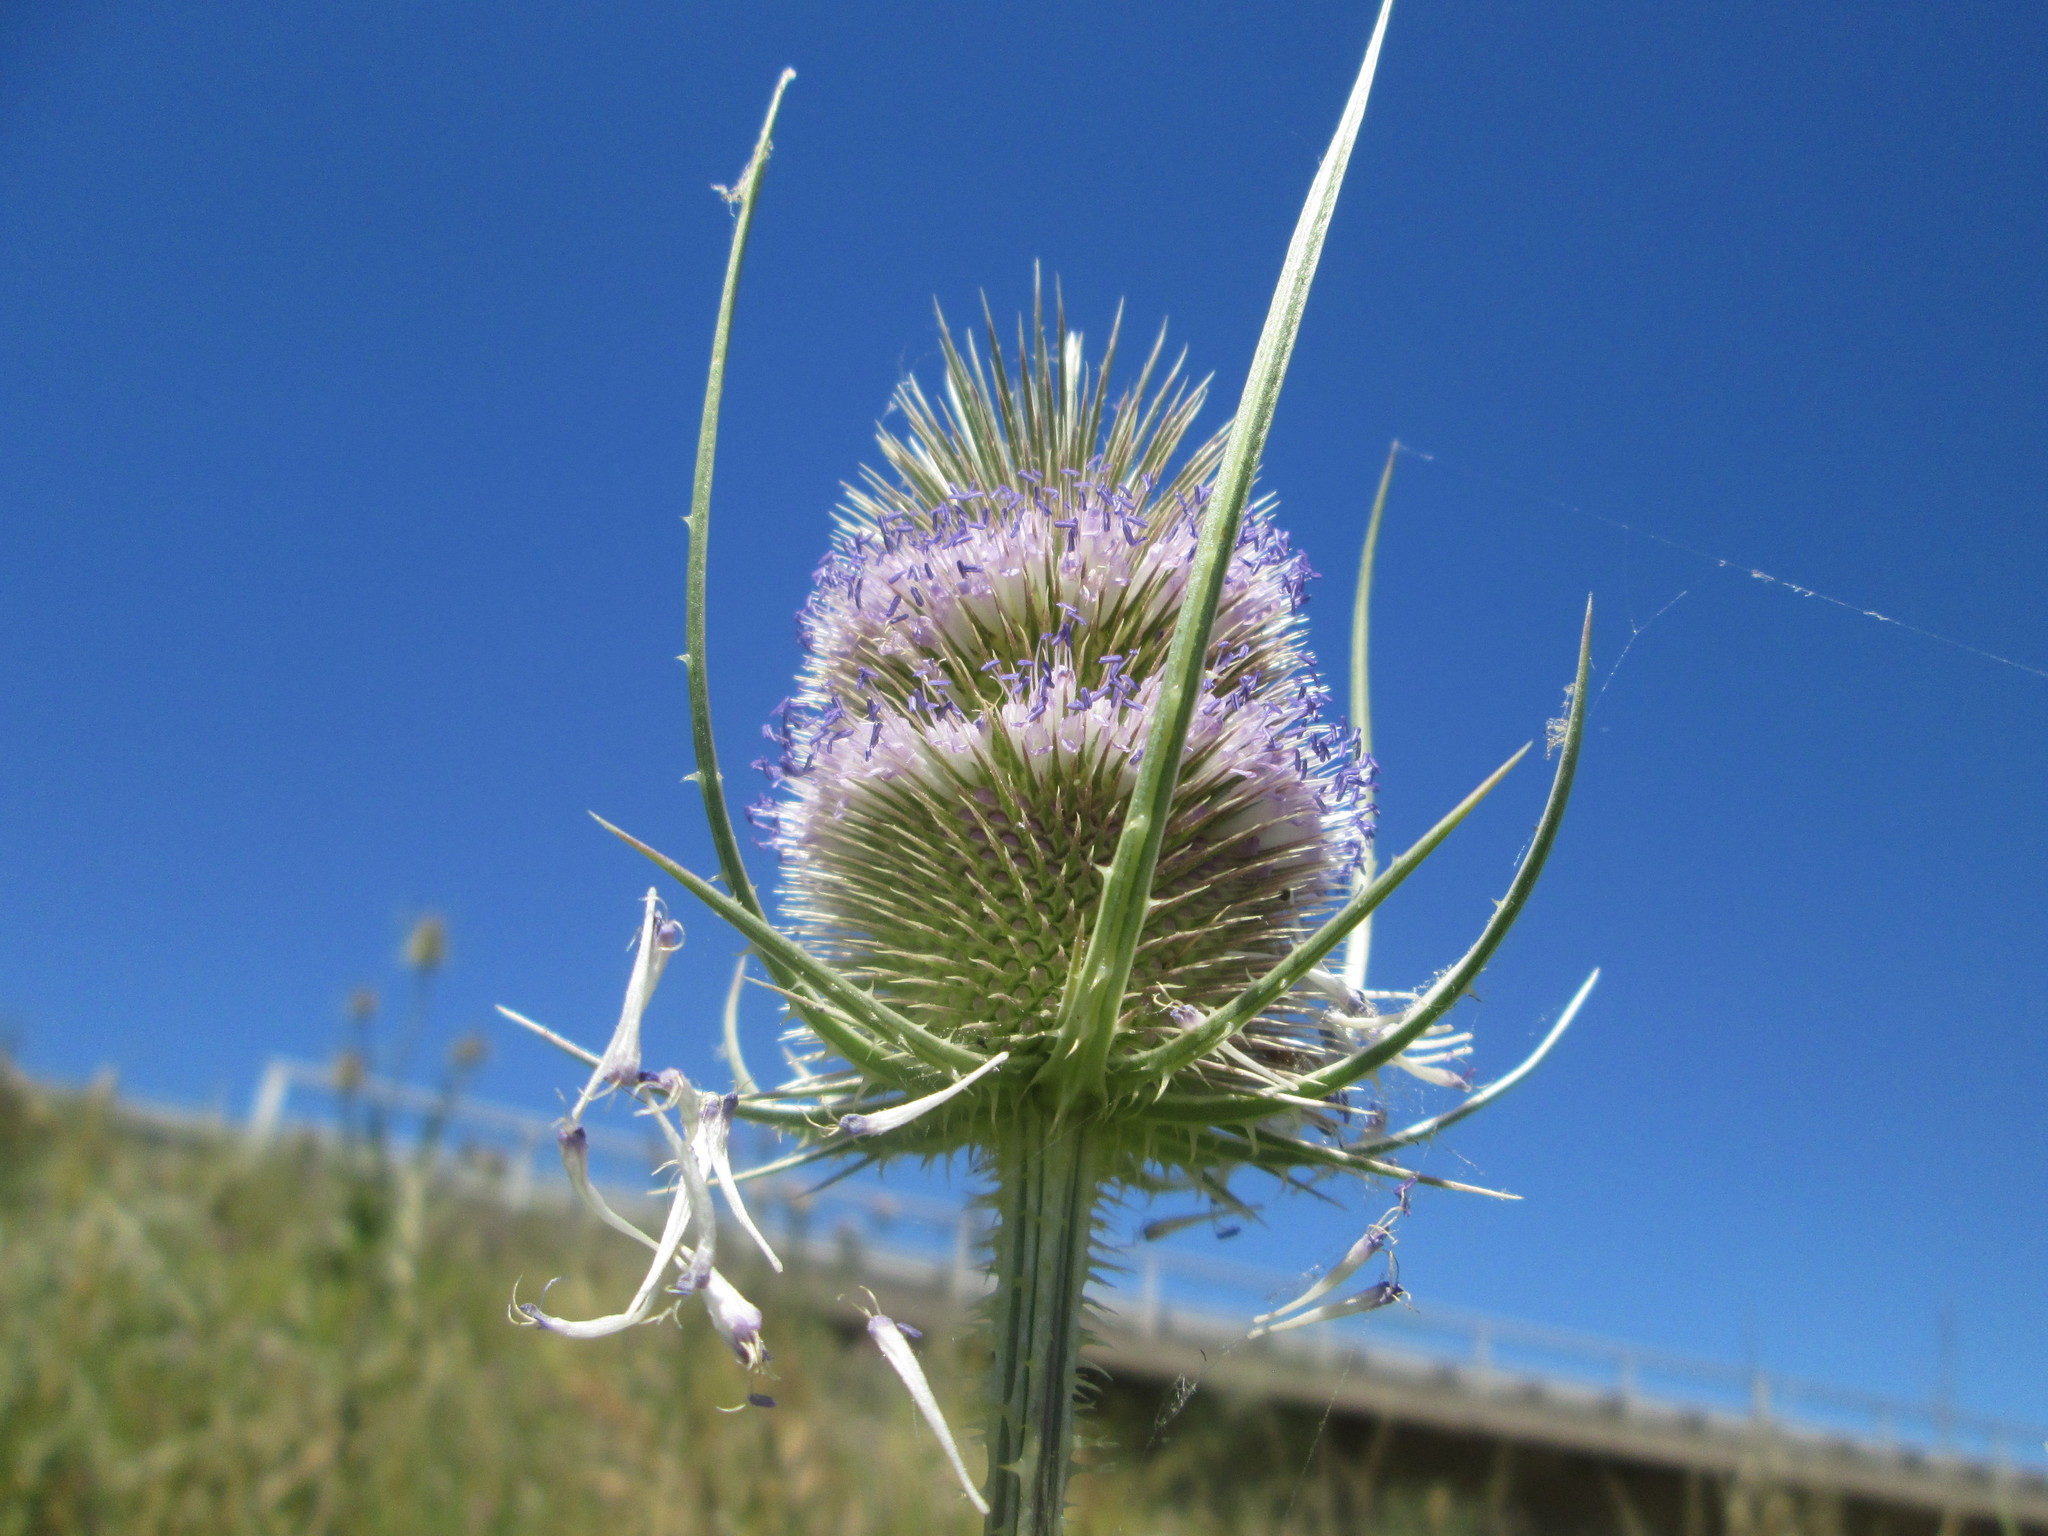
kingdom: Plantae
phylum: Tracheophyta
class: Magnoliopsida
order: Dipsacales
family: Caprifoliaceae
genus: Dipsacus
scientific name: Dipsacus fullonum
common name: Teasel
